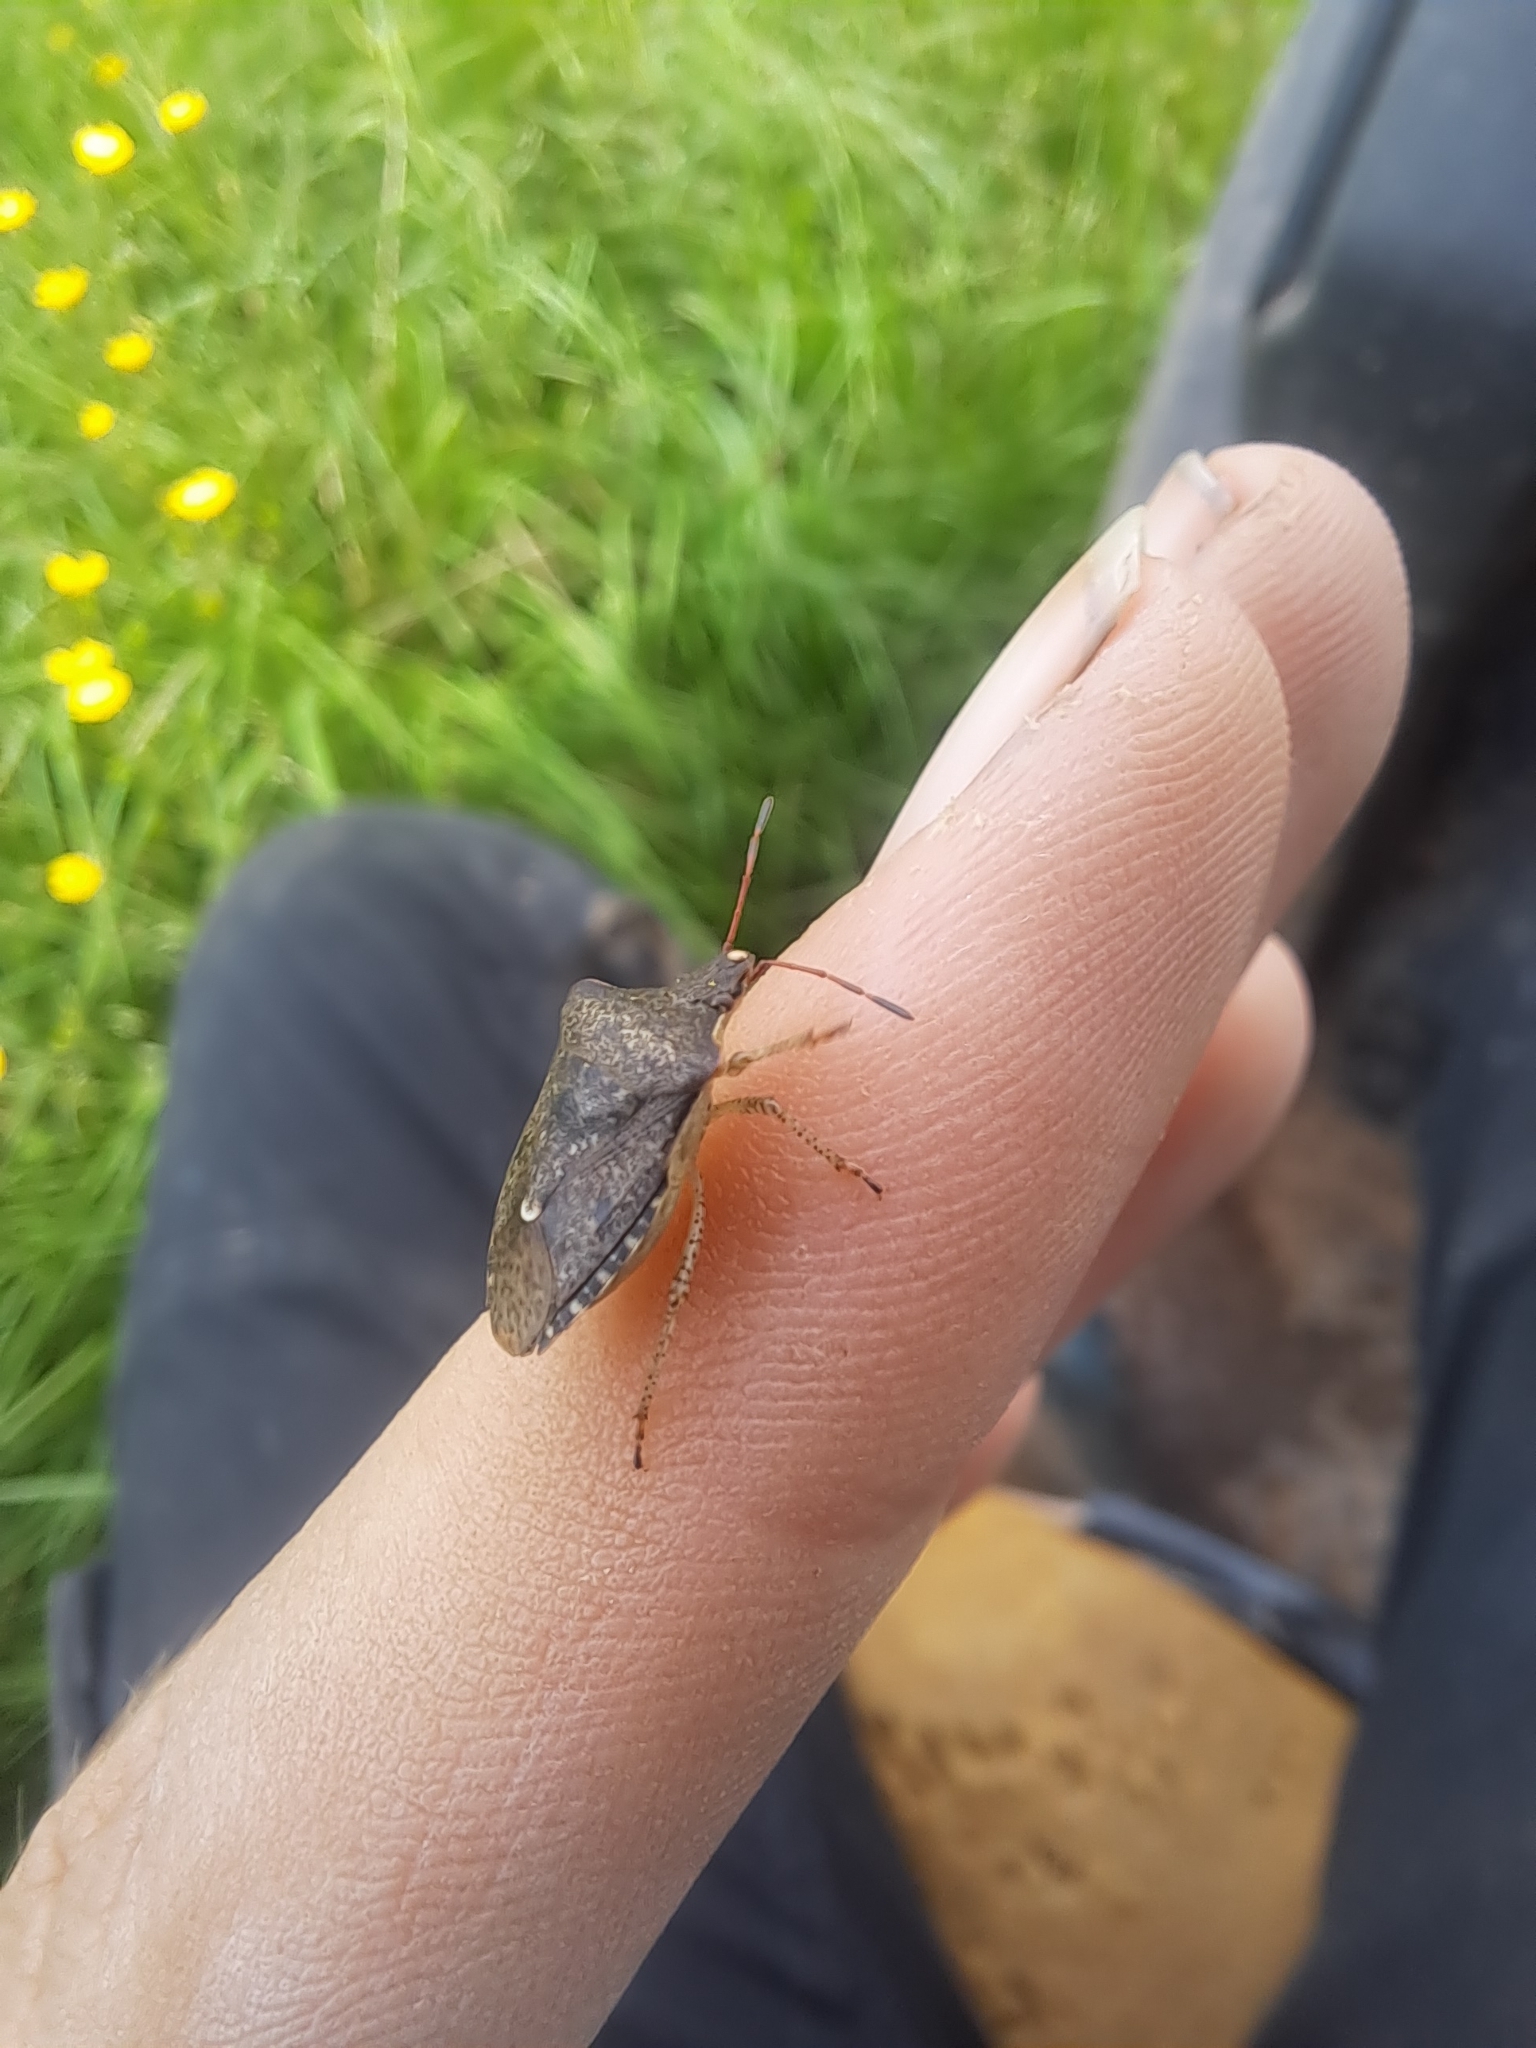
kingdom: Animalia
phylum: Arthropoda
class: Insecta
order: Hemiptera
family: Pentatomidae
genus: Euschistus
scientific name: Euschistus tristigmus
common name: Dusky stink bug
